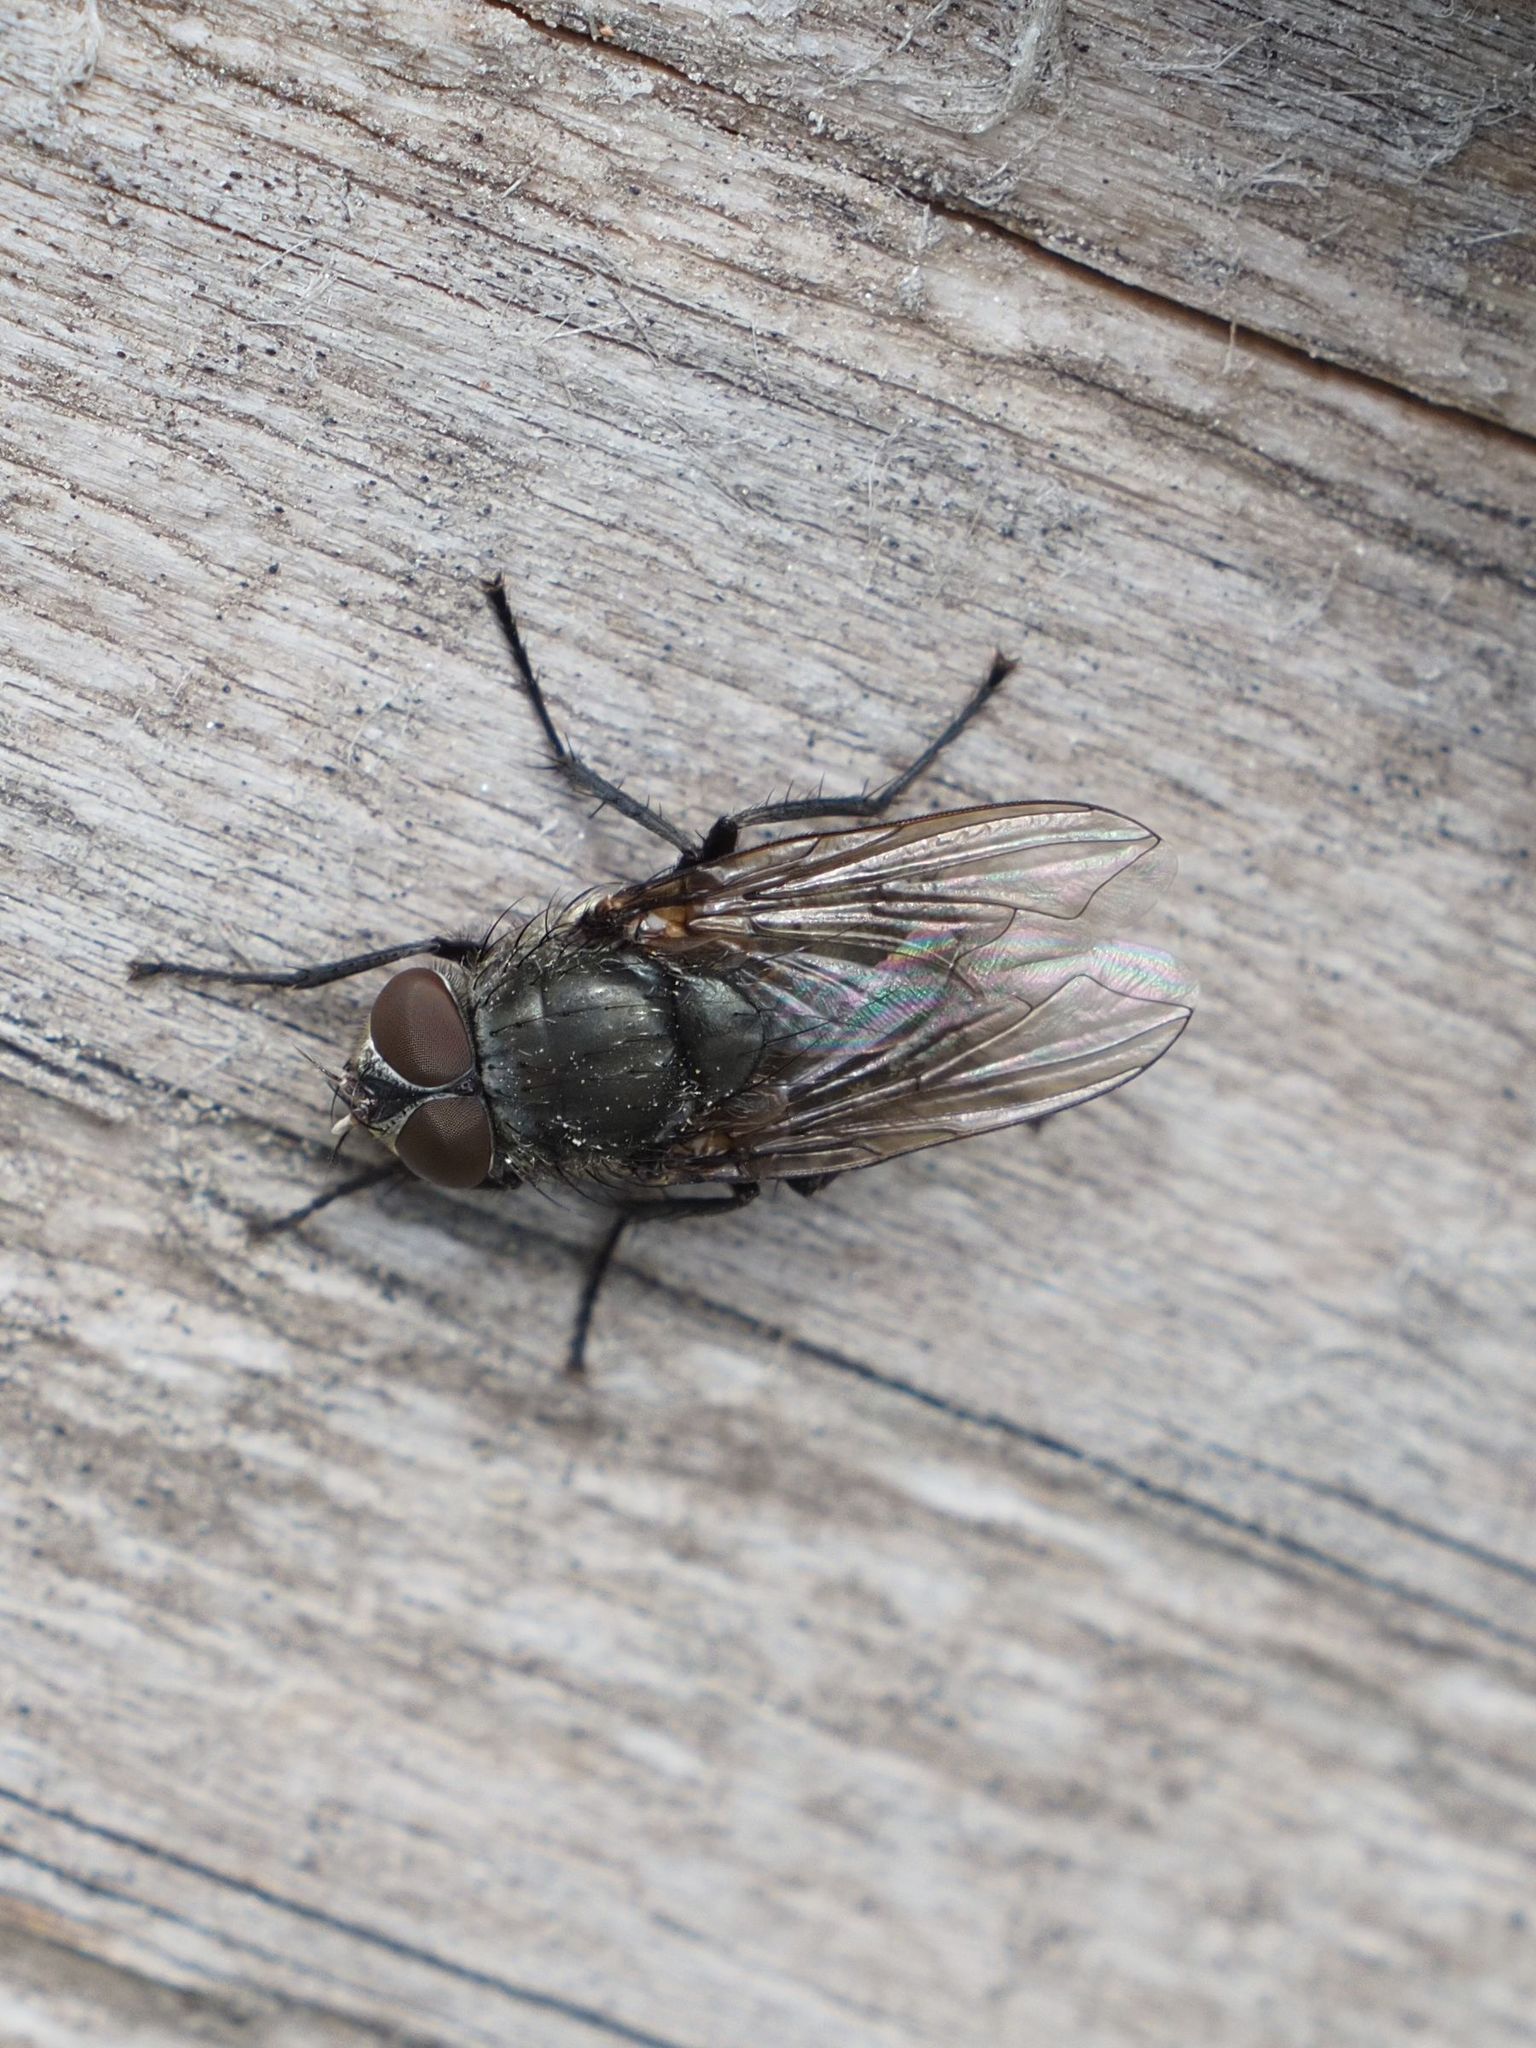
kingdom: Animalia
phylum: Arthropoda
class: Insecta
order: Diptera
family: Polleniidae
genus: Pollenia
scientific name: Pollenia rudis
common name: Awkward clusterfly
